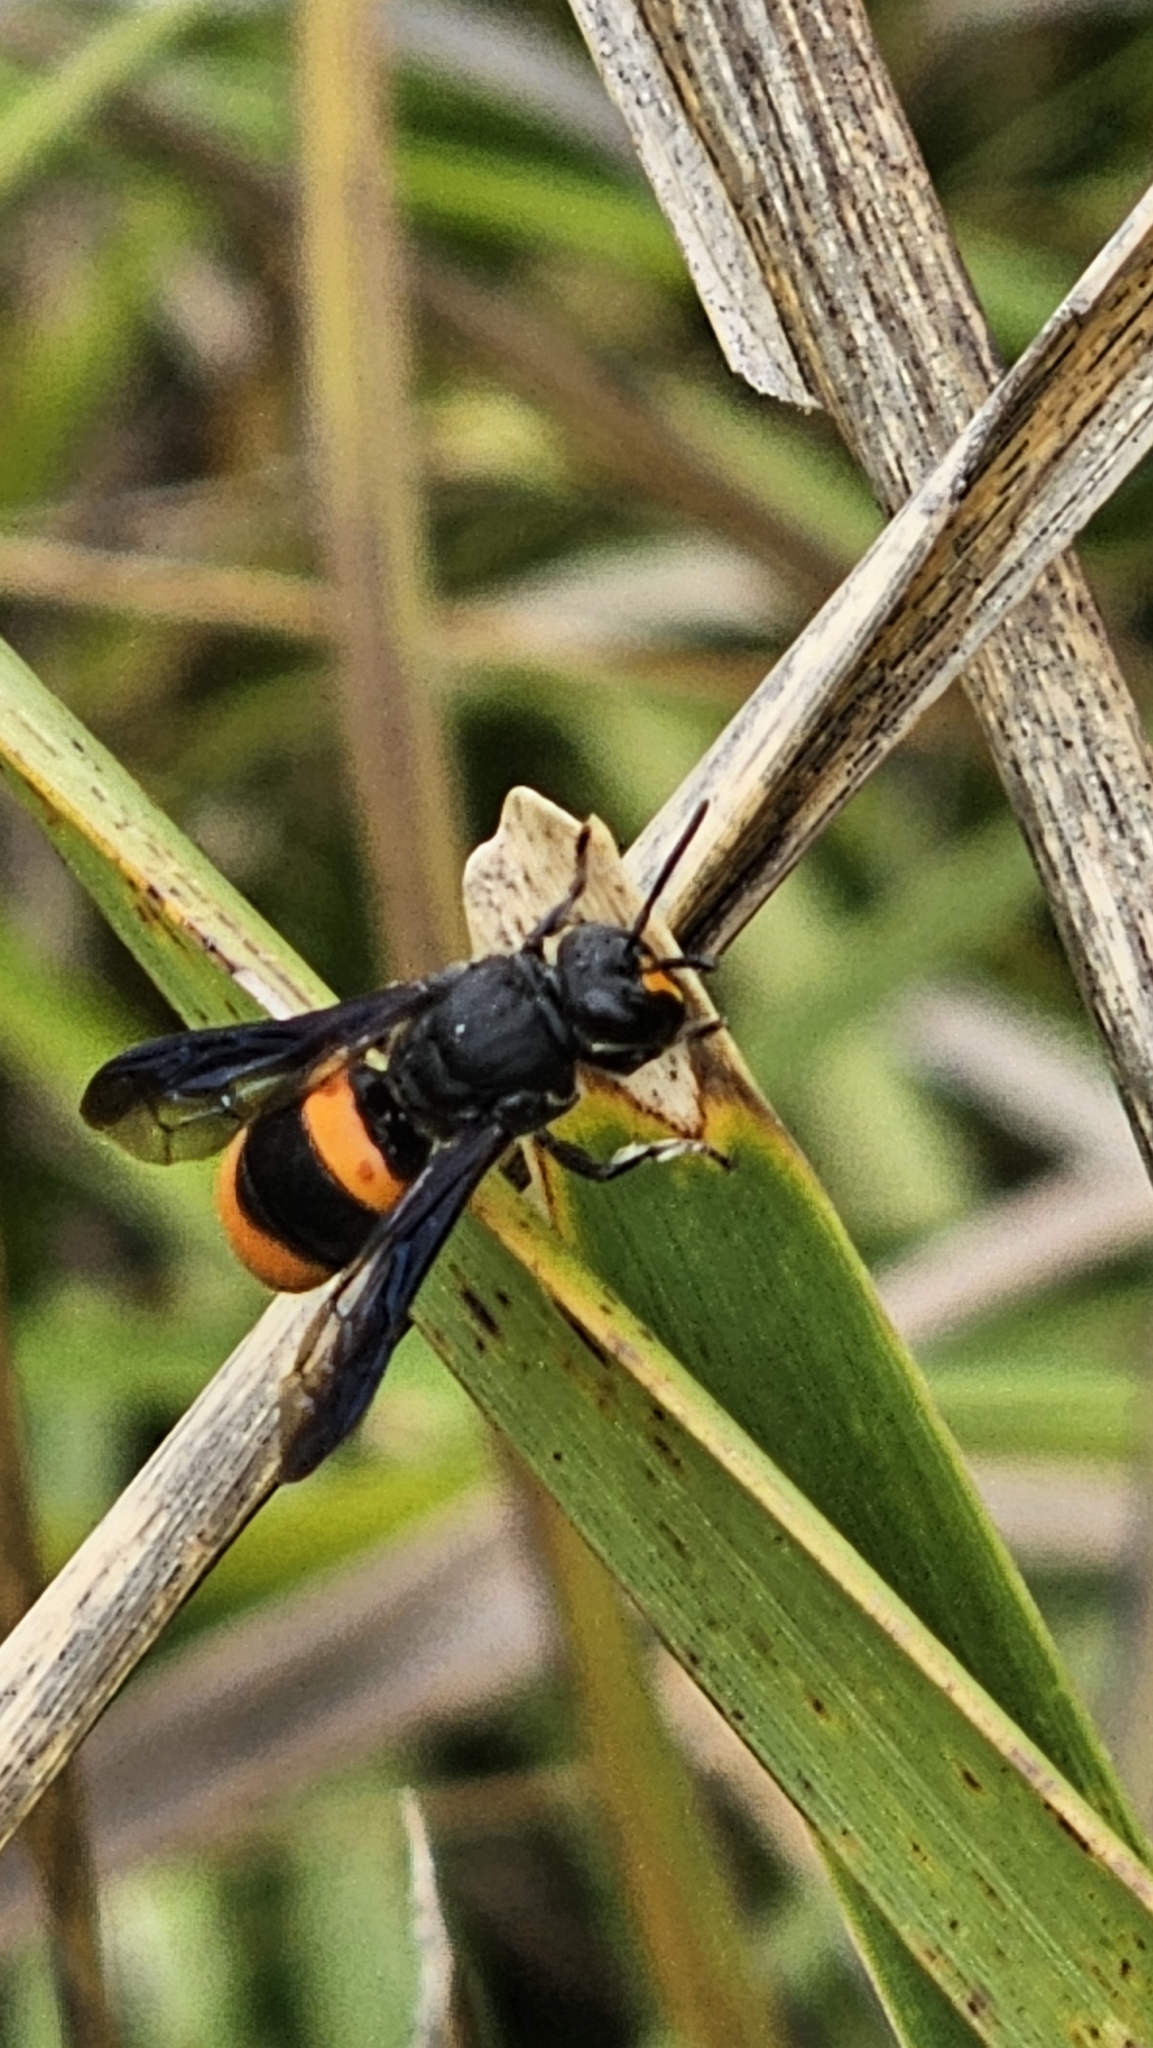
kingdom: Animalia
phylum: Arthropoda
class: Insecta
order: Hymenoptera
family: Colletidae
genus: Hyleoides
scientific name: Hyleoides concinna
